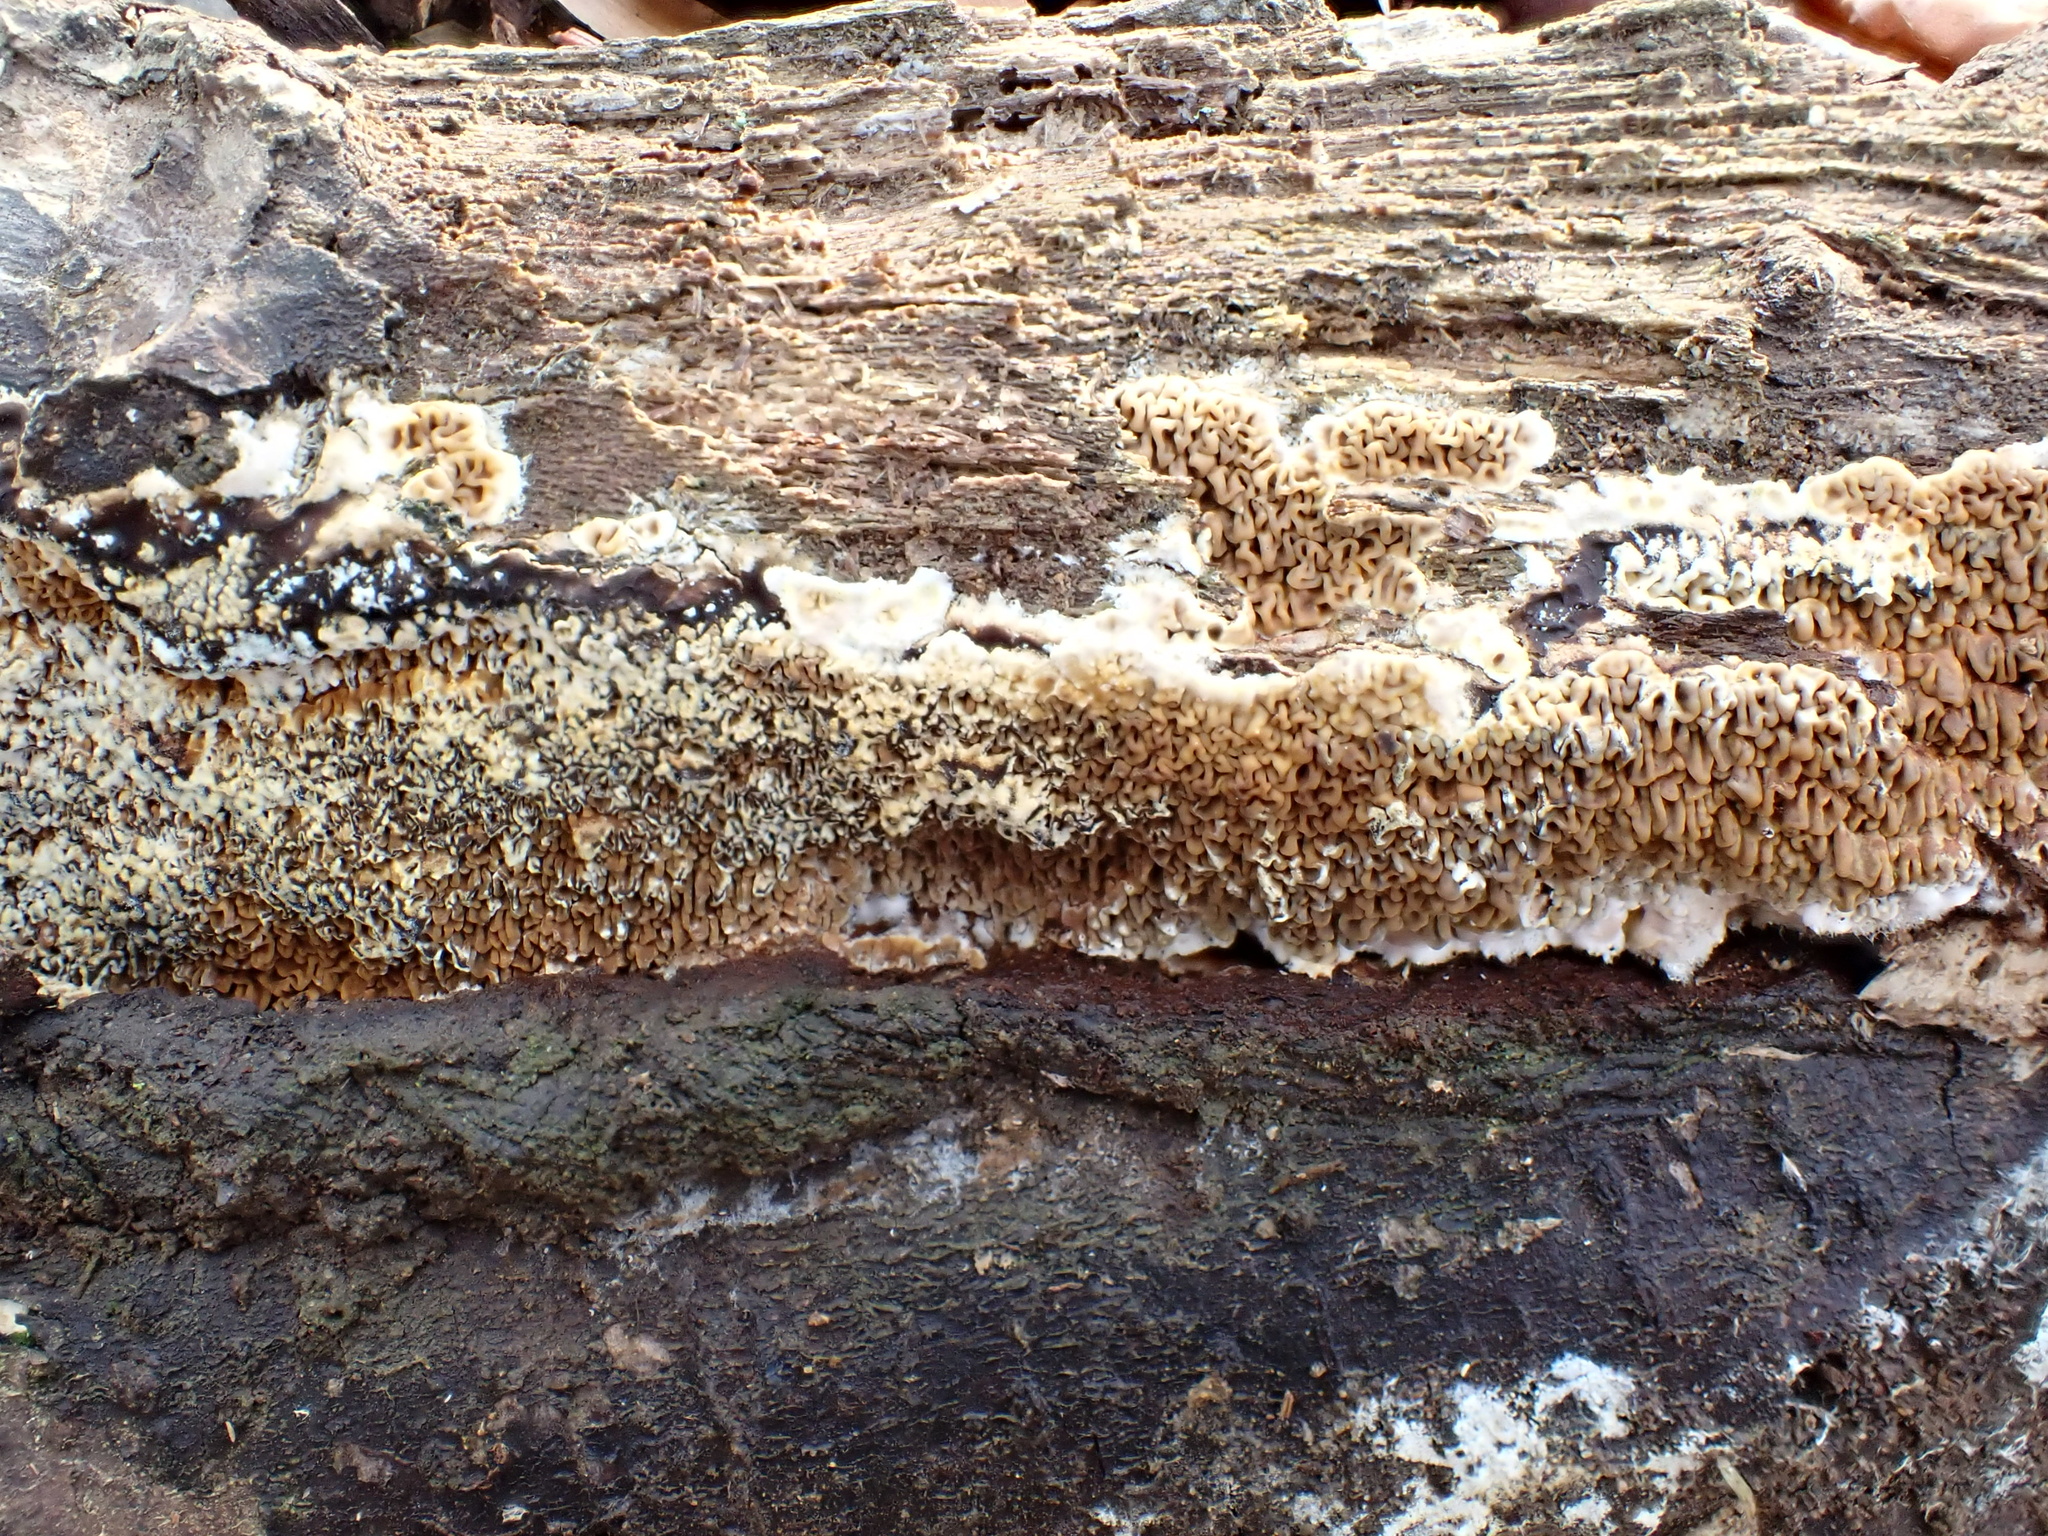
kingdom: Fungi
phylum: Basidiomycota
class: Agaricomycetes
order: Boletales
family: Serpulaceae
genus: Serpula
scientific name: Serpula himantioides
